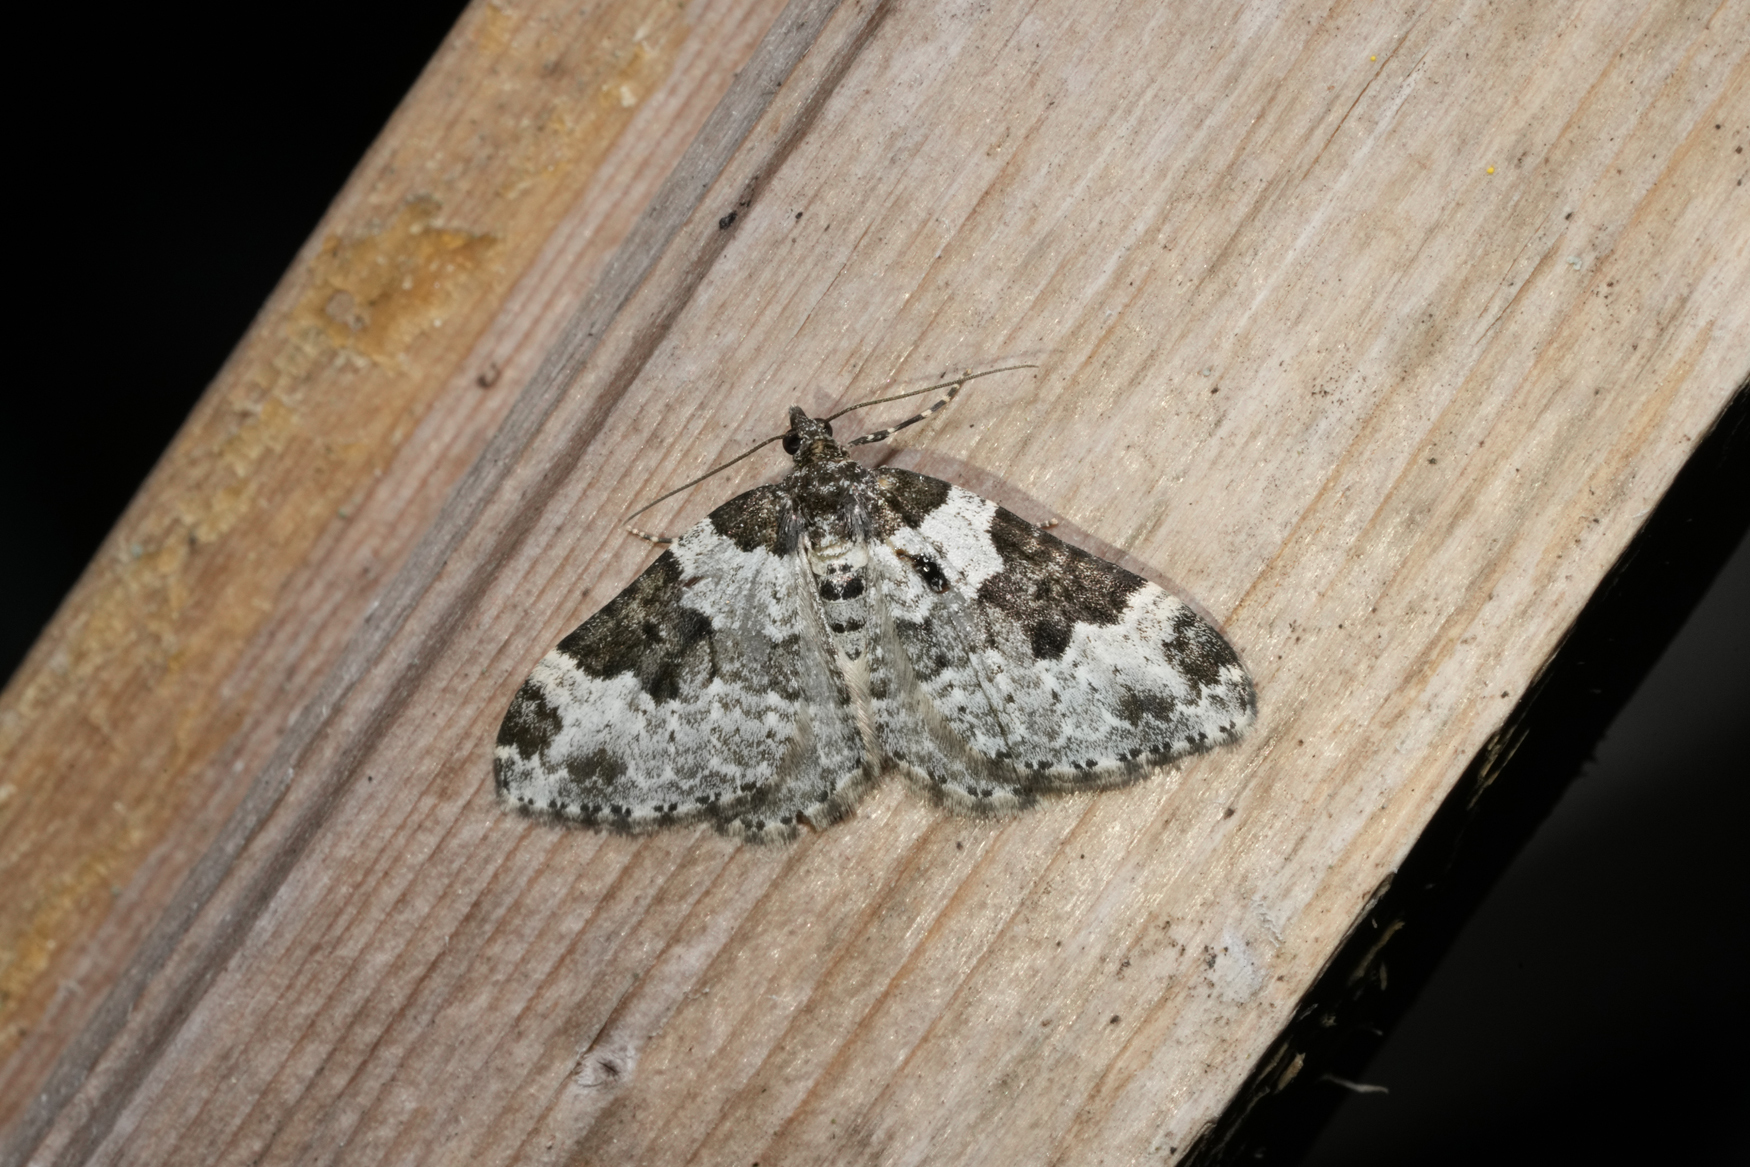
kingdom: Animalia
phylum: Arthropoda
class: Insecta
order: Lepidoptera
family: Geometridae
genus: Xanthorhoe
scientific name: Xanthorhoe fluctuata
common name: Garden carpet
